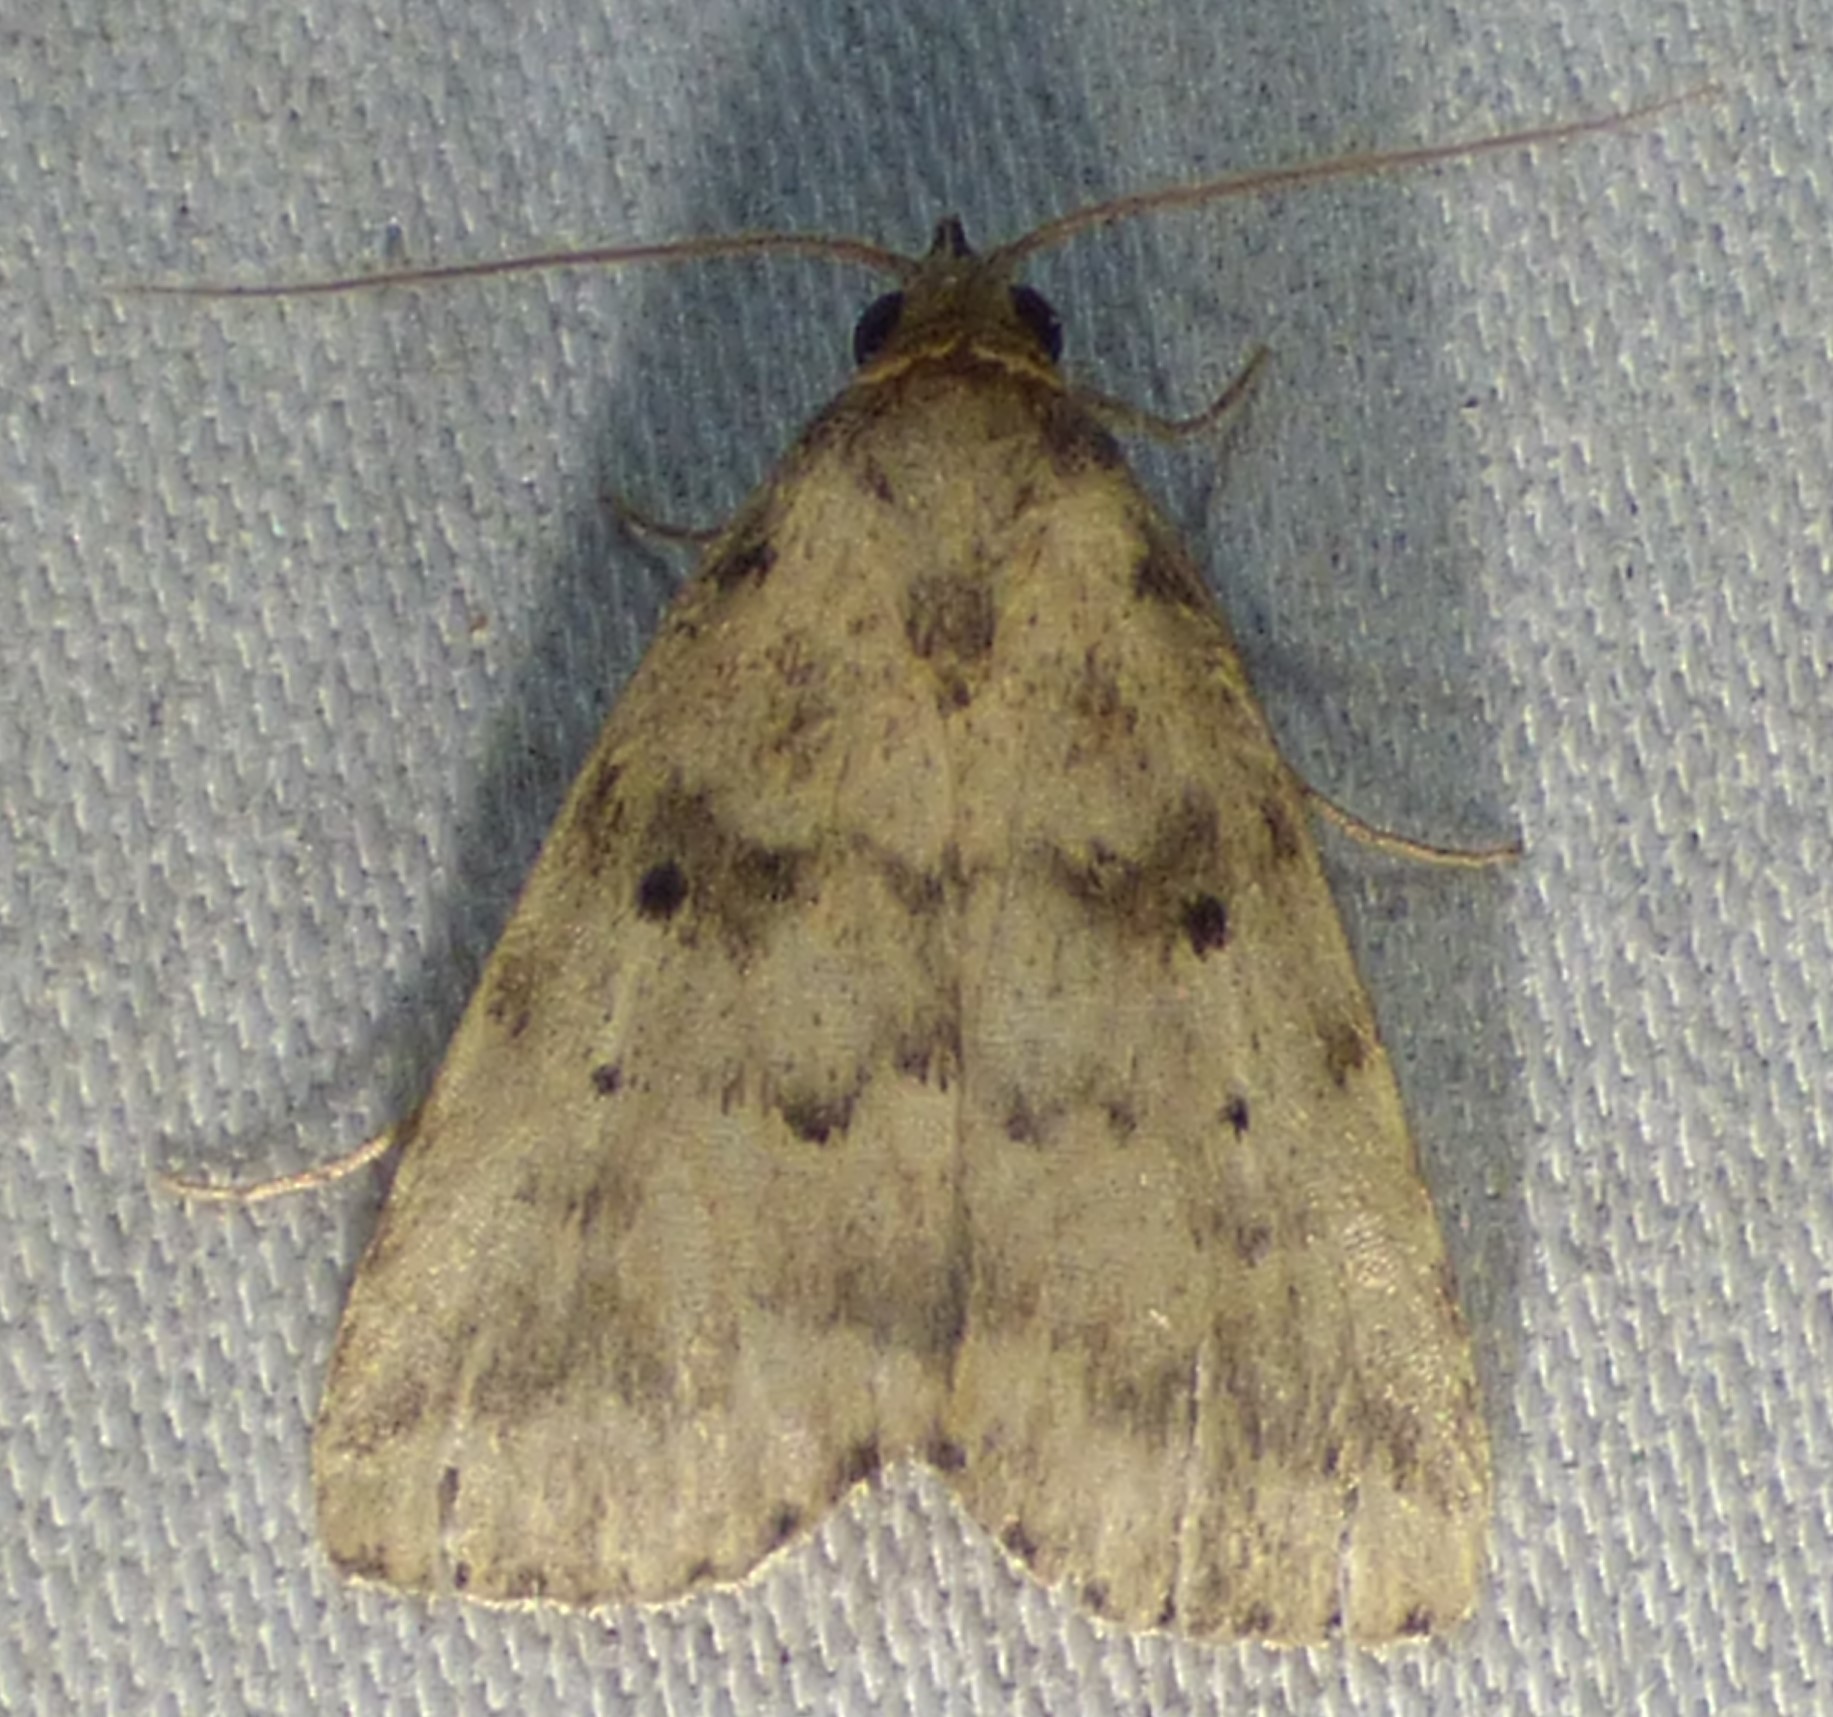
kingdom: Animalia
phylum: Arthropoda
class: Insecta
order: Lepidoptera
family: Erebidae
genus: Arugisa
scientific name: Arugisa lutea
